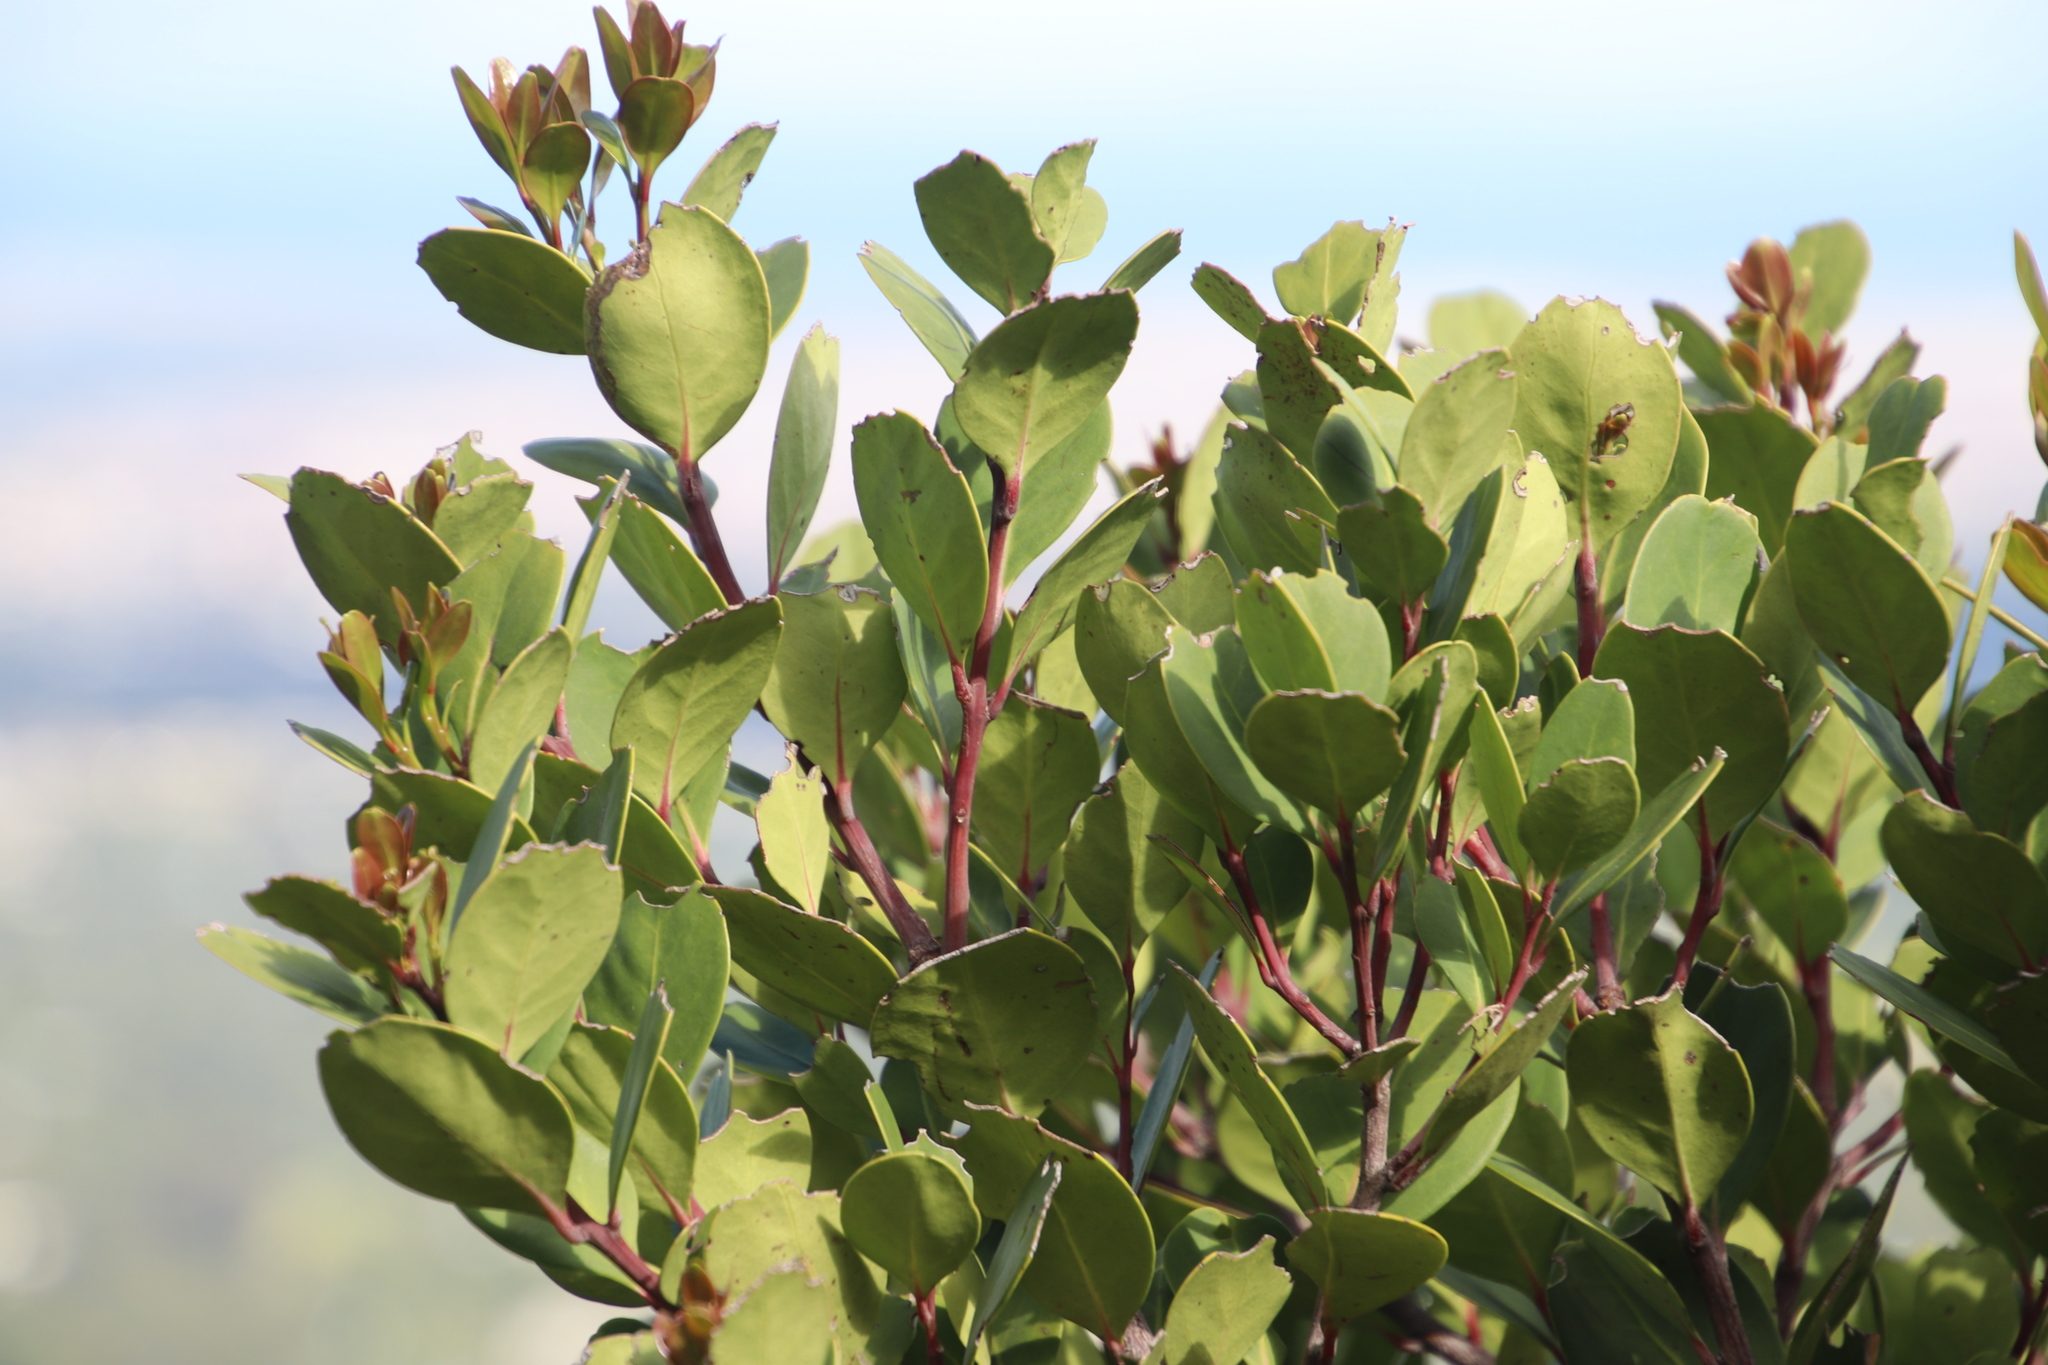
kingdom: Plantae
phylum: Tracheophyta
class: Magnoliopsida
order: Celastrales
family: Celastraceae
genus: Gymnosporia
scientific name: Gymnosporia laurina
